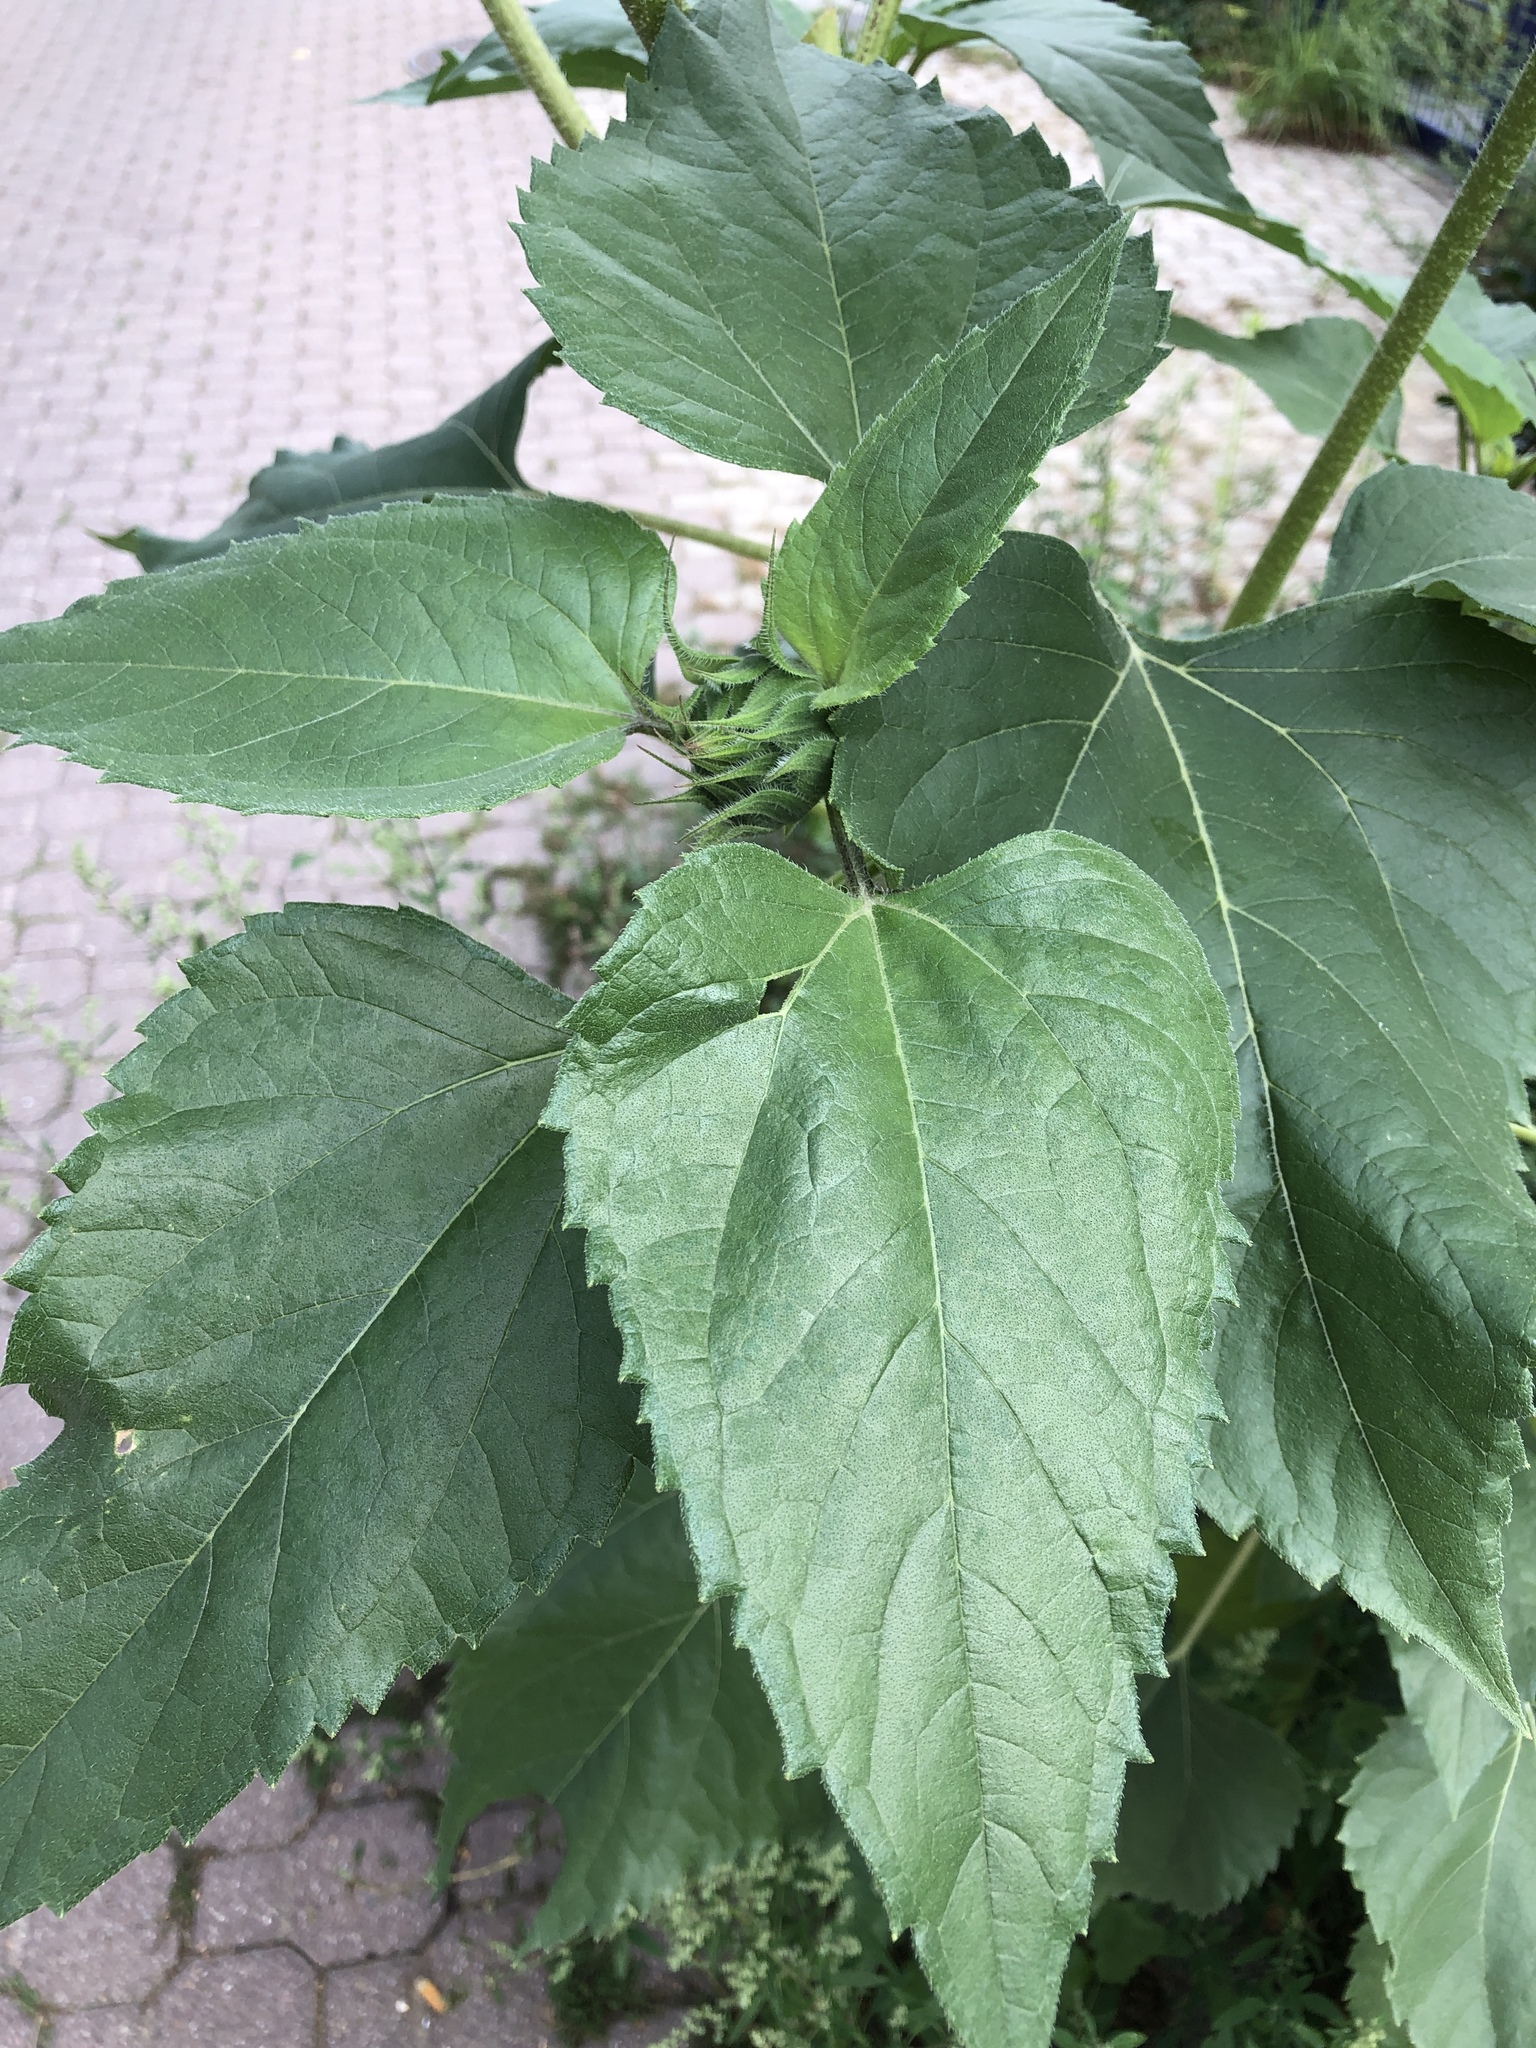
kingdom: Plantae
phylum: Tracheophyta
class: Magnoliopsida
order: Asterales
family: Asteraceae
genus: Helianthus
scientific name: Helianthus annuus
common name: Sunflower
